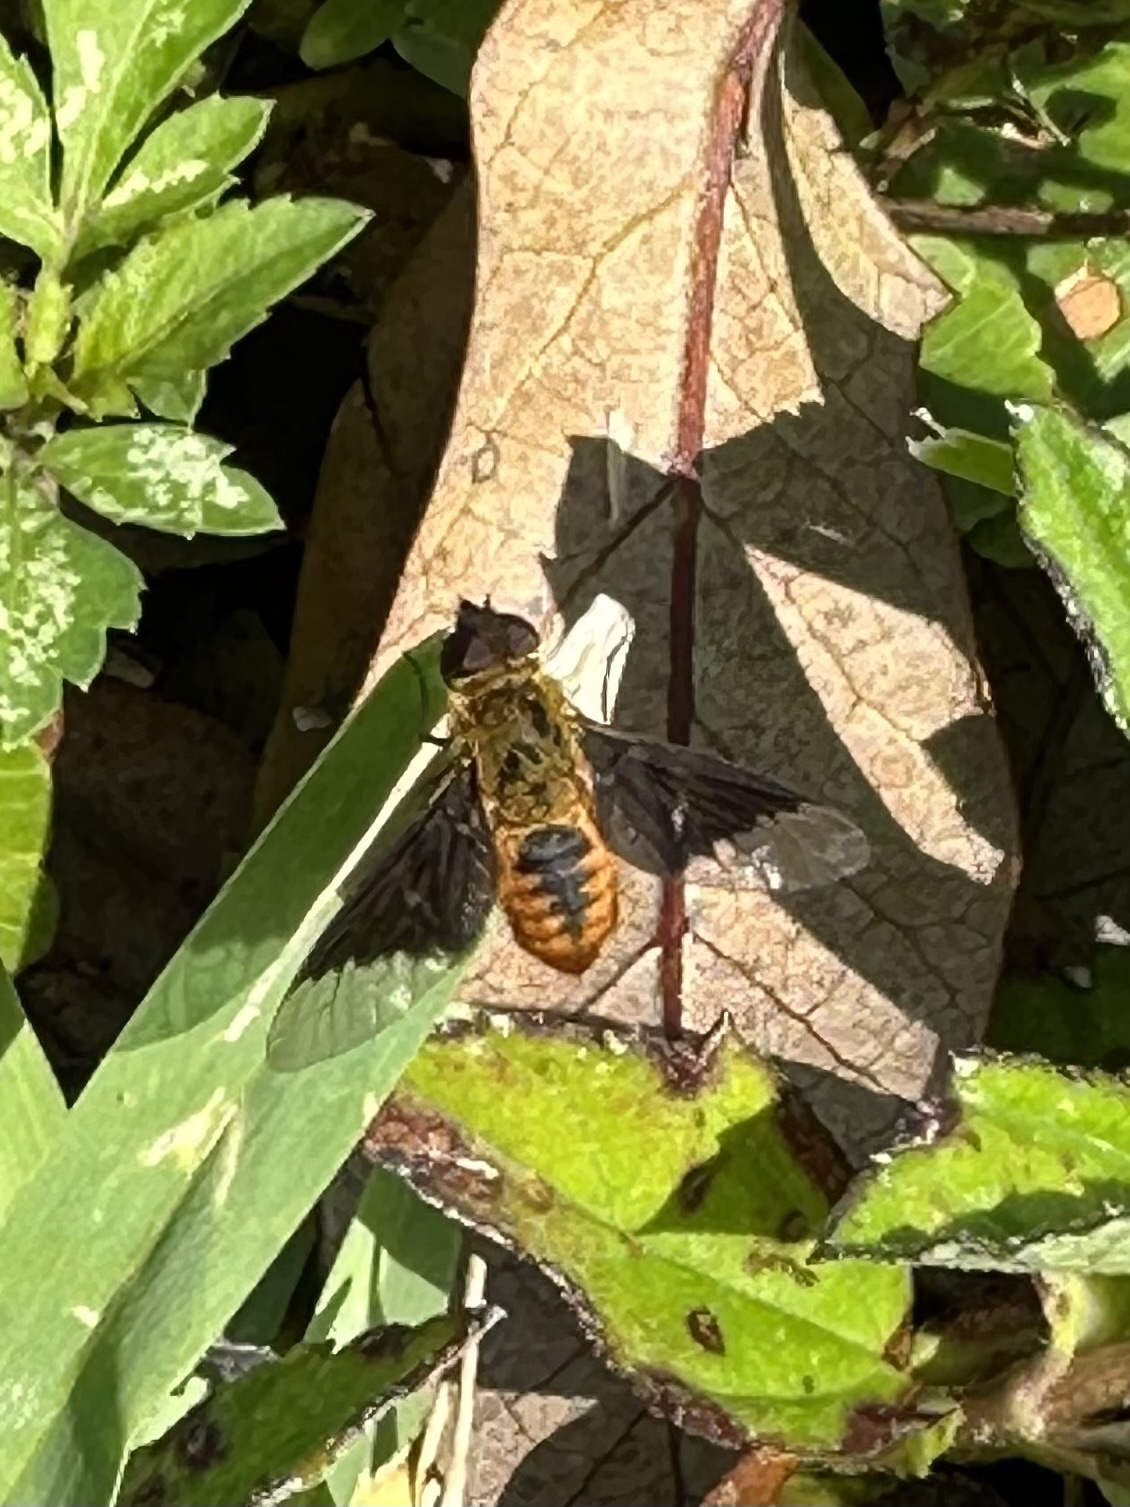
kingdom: Animalia
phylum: Arthropoda
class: Insecta
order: Diptera
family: Bombyliidae
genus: Chrysanthrax
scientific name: Chrysanthrax cypris
